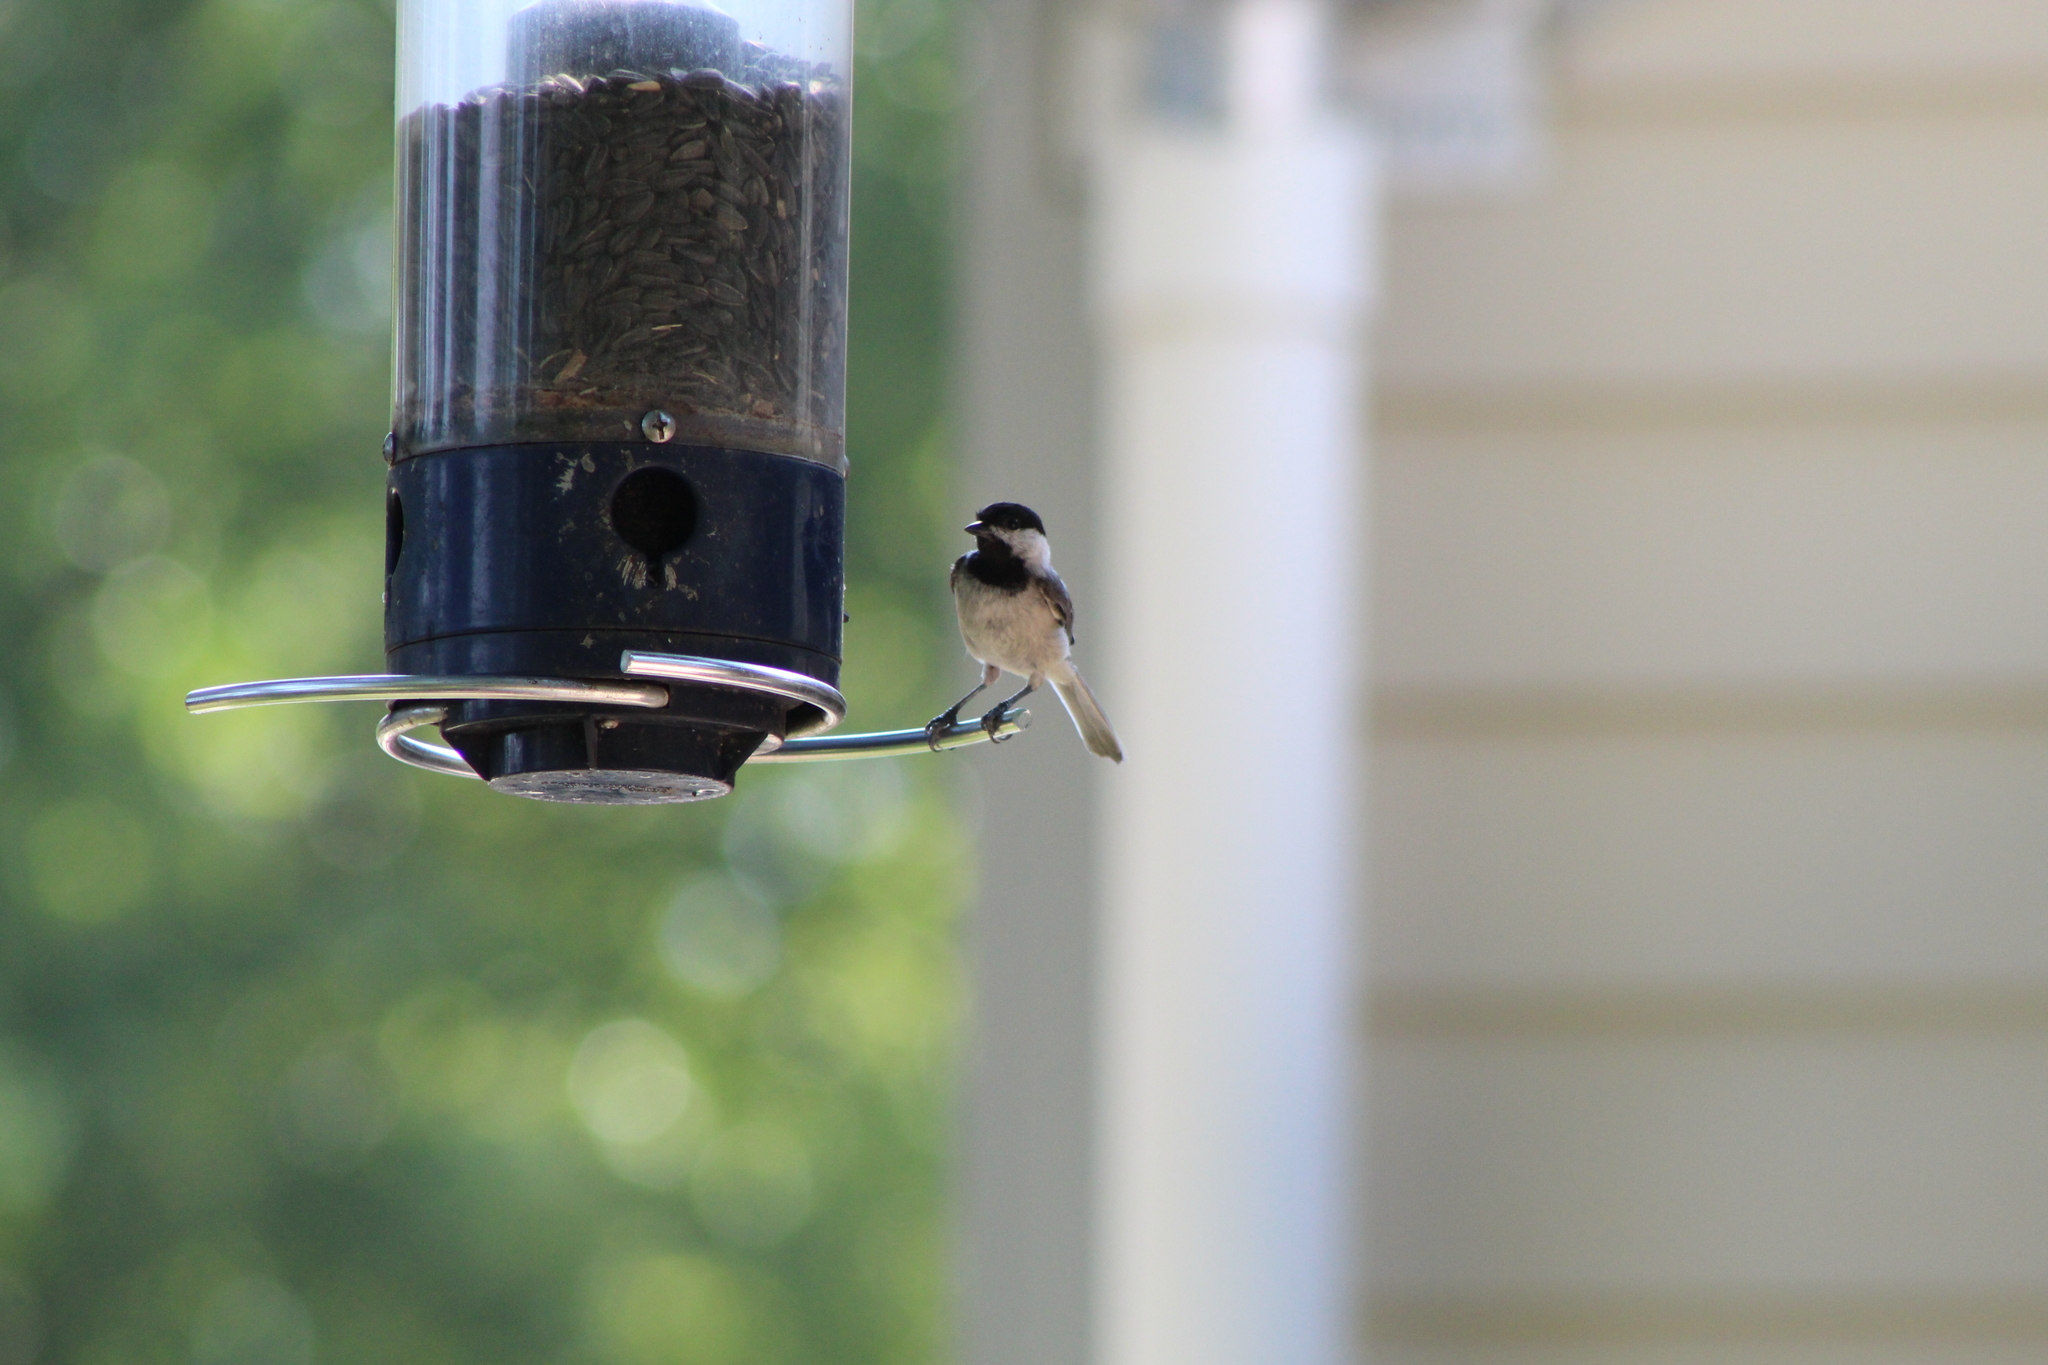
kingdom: Animalia
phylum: Chordata
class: Aves
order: Passeriformes
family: Paridae
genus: Poecile
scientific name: Poecile carolinensis
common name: Carolina chickadee
